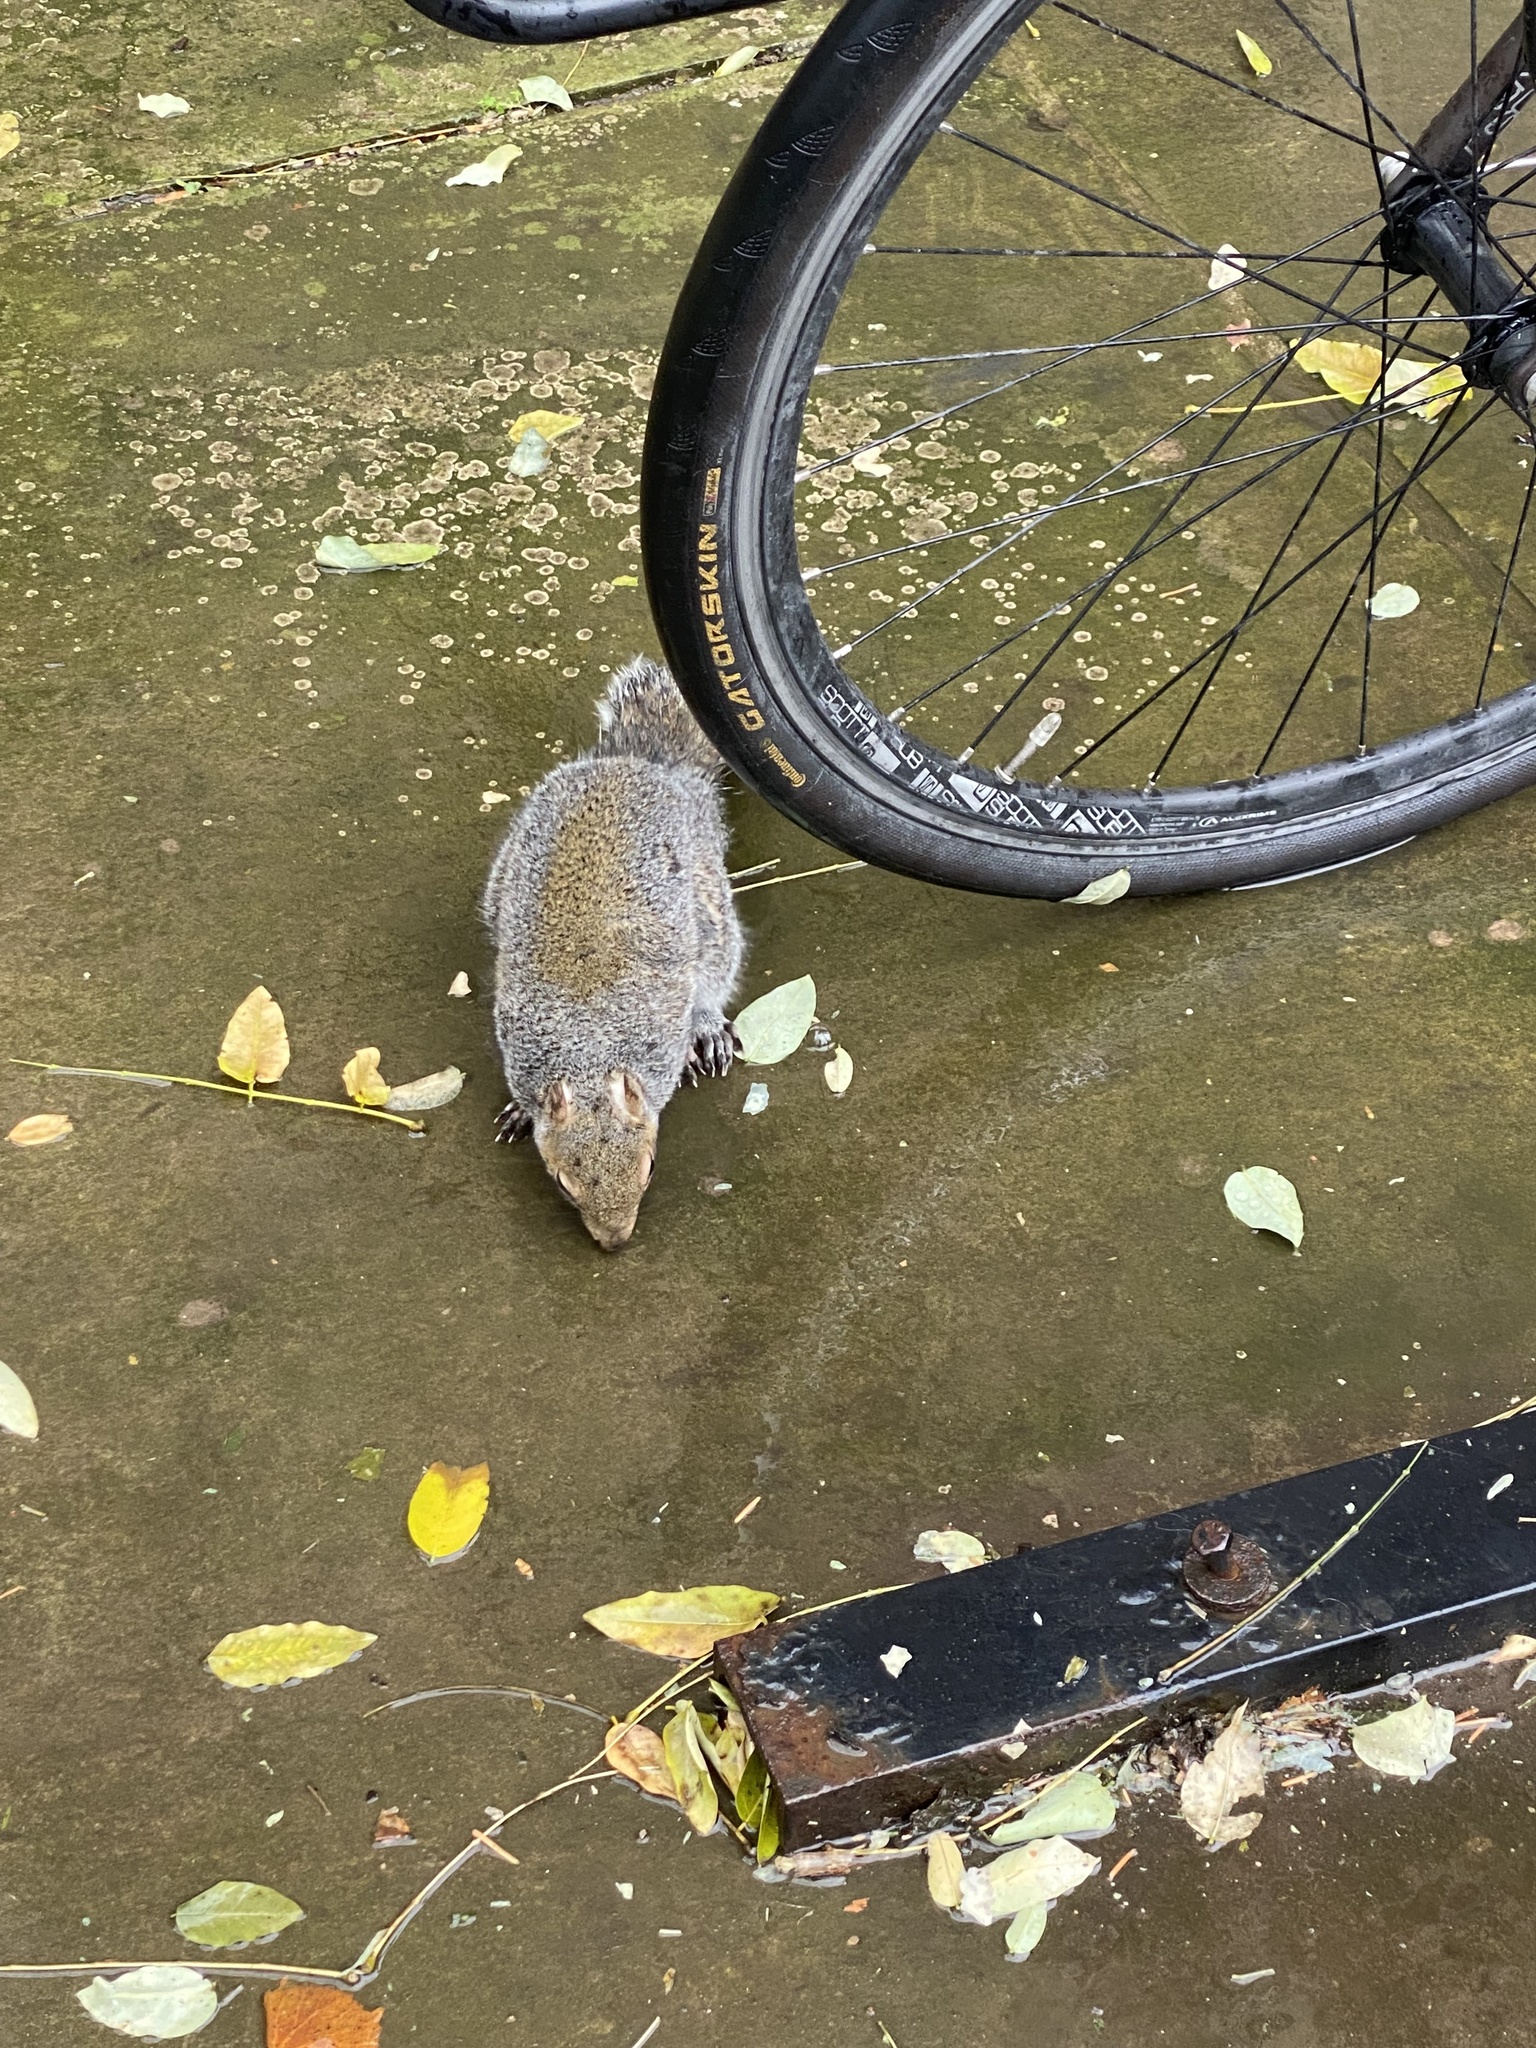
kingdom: Animalia
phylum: Chordata
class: Mammalia
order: Rodentia
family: Sciuridae
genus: Sciurus
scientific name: Sciurus carolinensis
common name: Eastern gray squirrel
